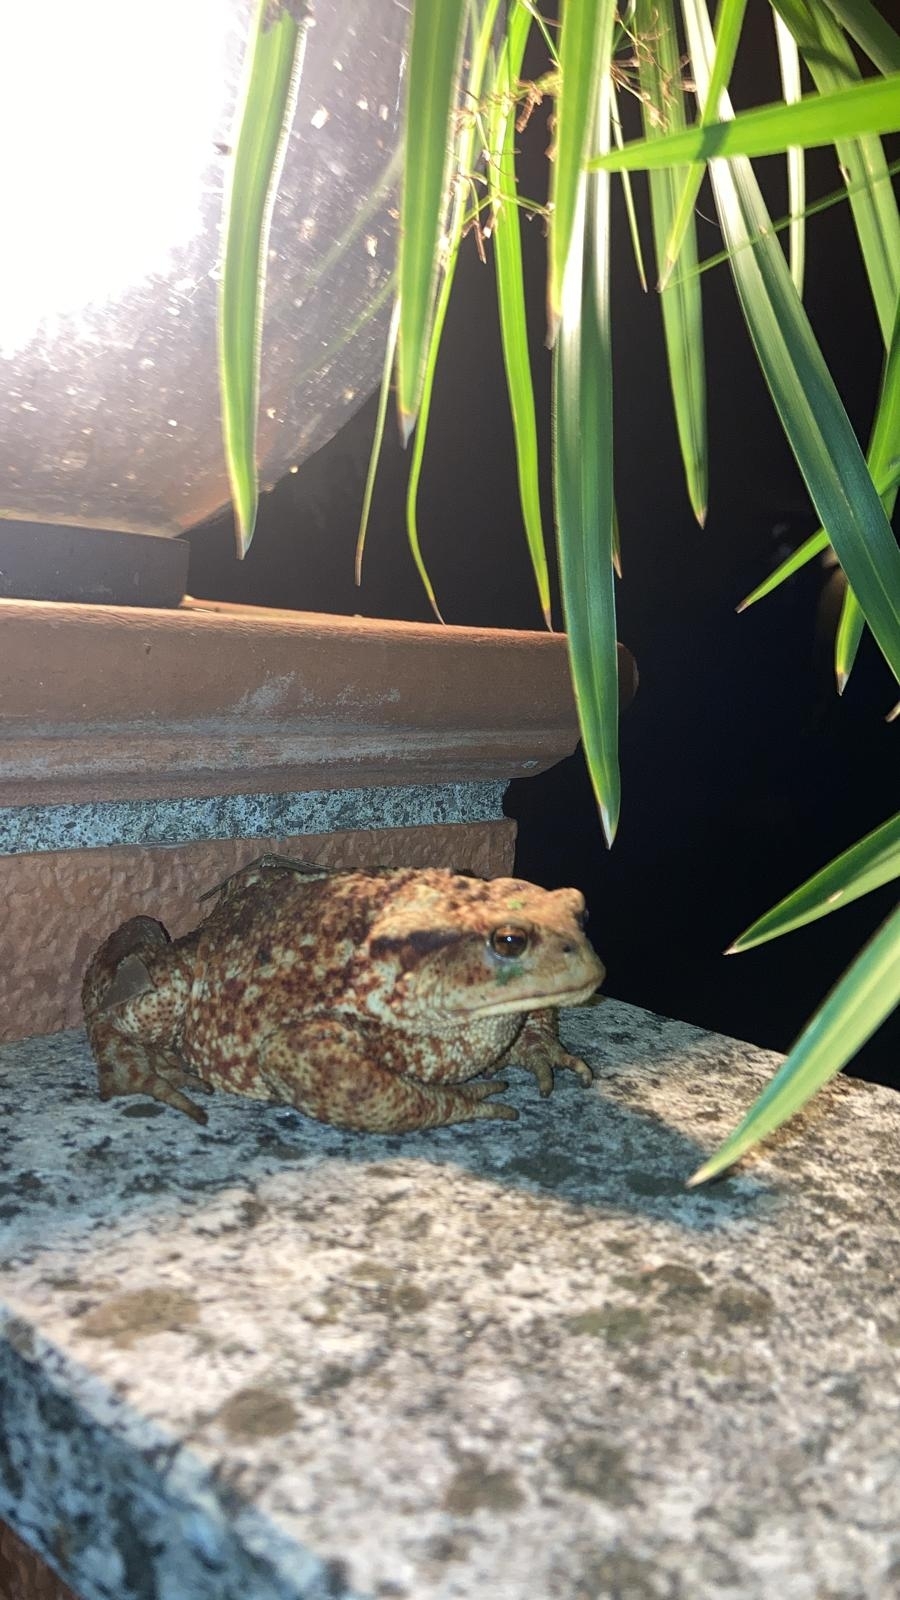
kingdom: Animalia
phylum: Chordata
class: Amphibia
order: Anura
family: Bufonidae
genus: Bufo
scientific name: Bufo bufo
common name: Common toad
